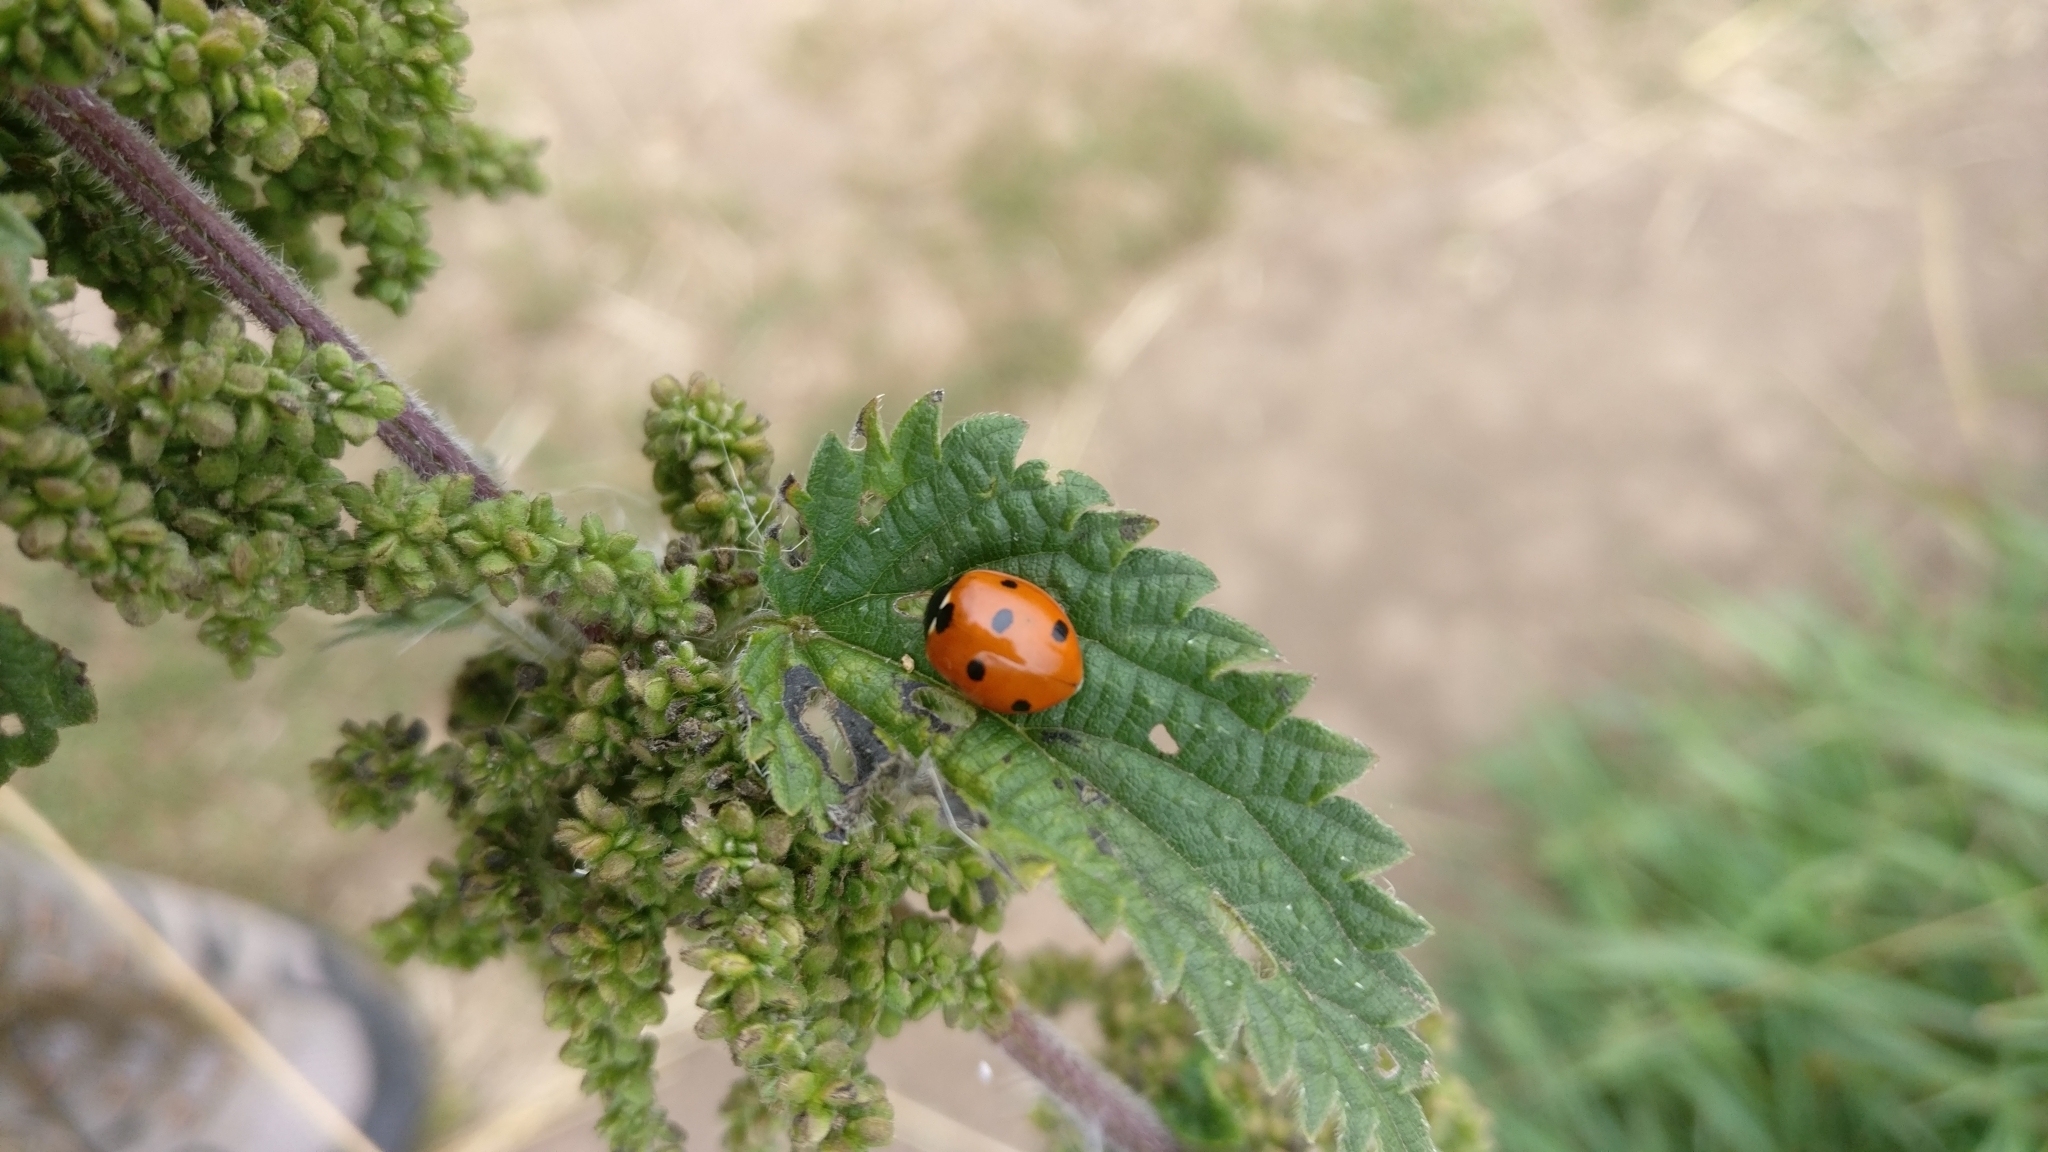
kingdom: Animalia
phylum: Arthropoda
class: Insecta
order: Coleoptera
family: Coccinellidae
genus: Coccinella
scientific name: Coccinella septempunctata
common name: Sevenspotted lady beetle
